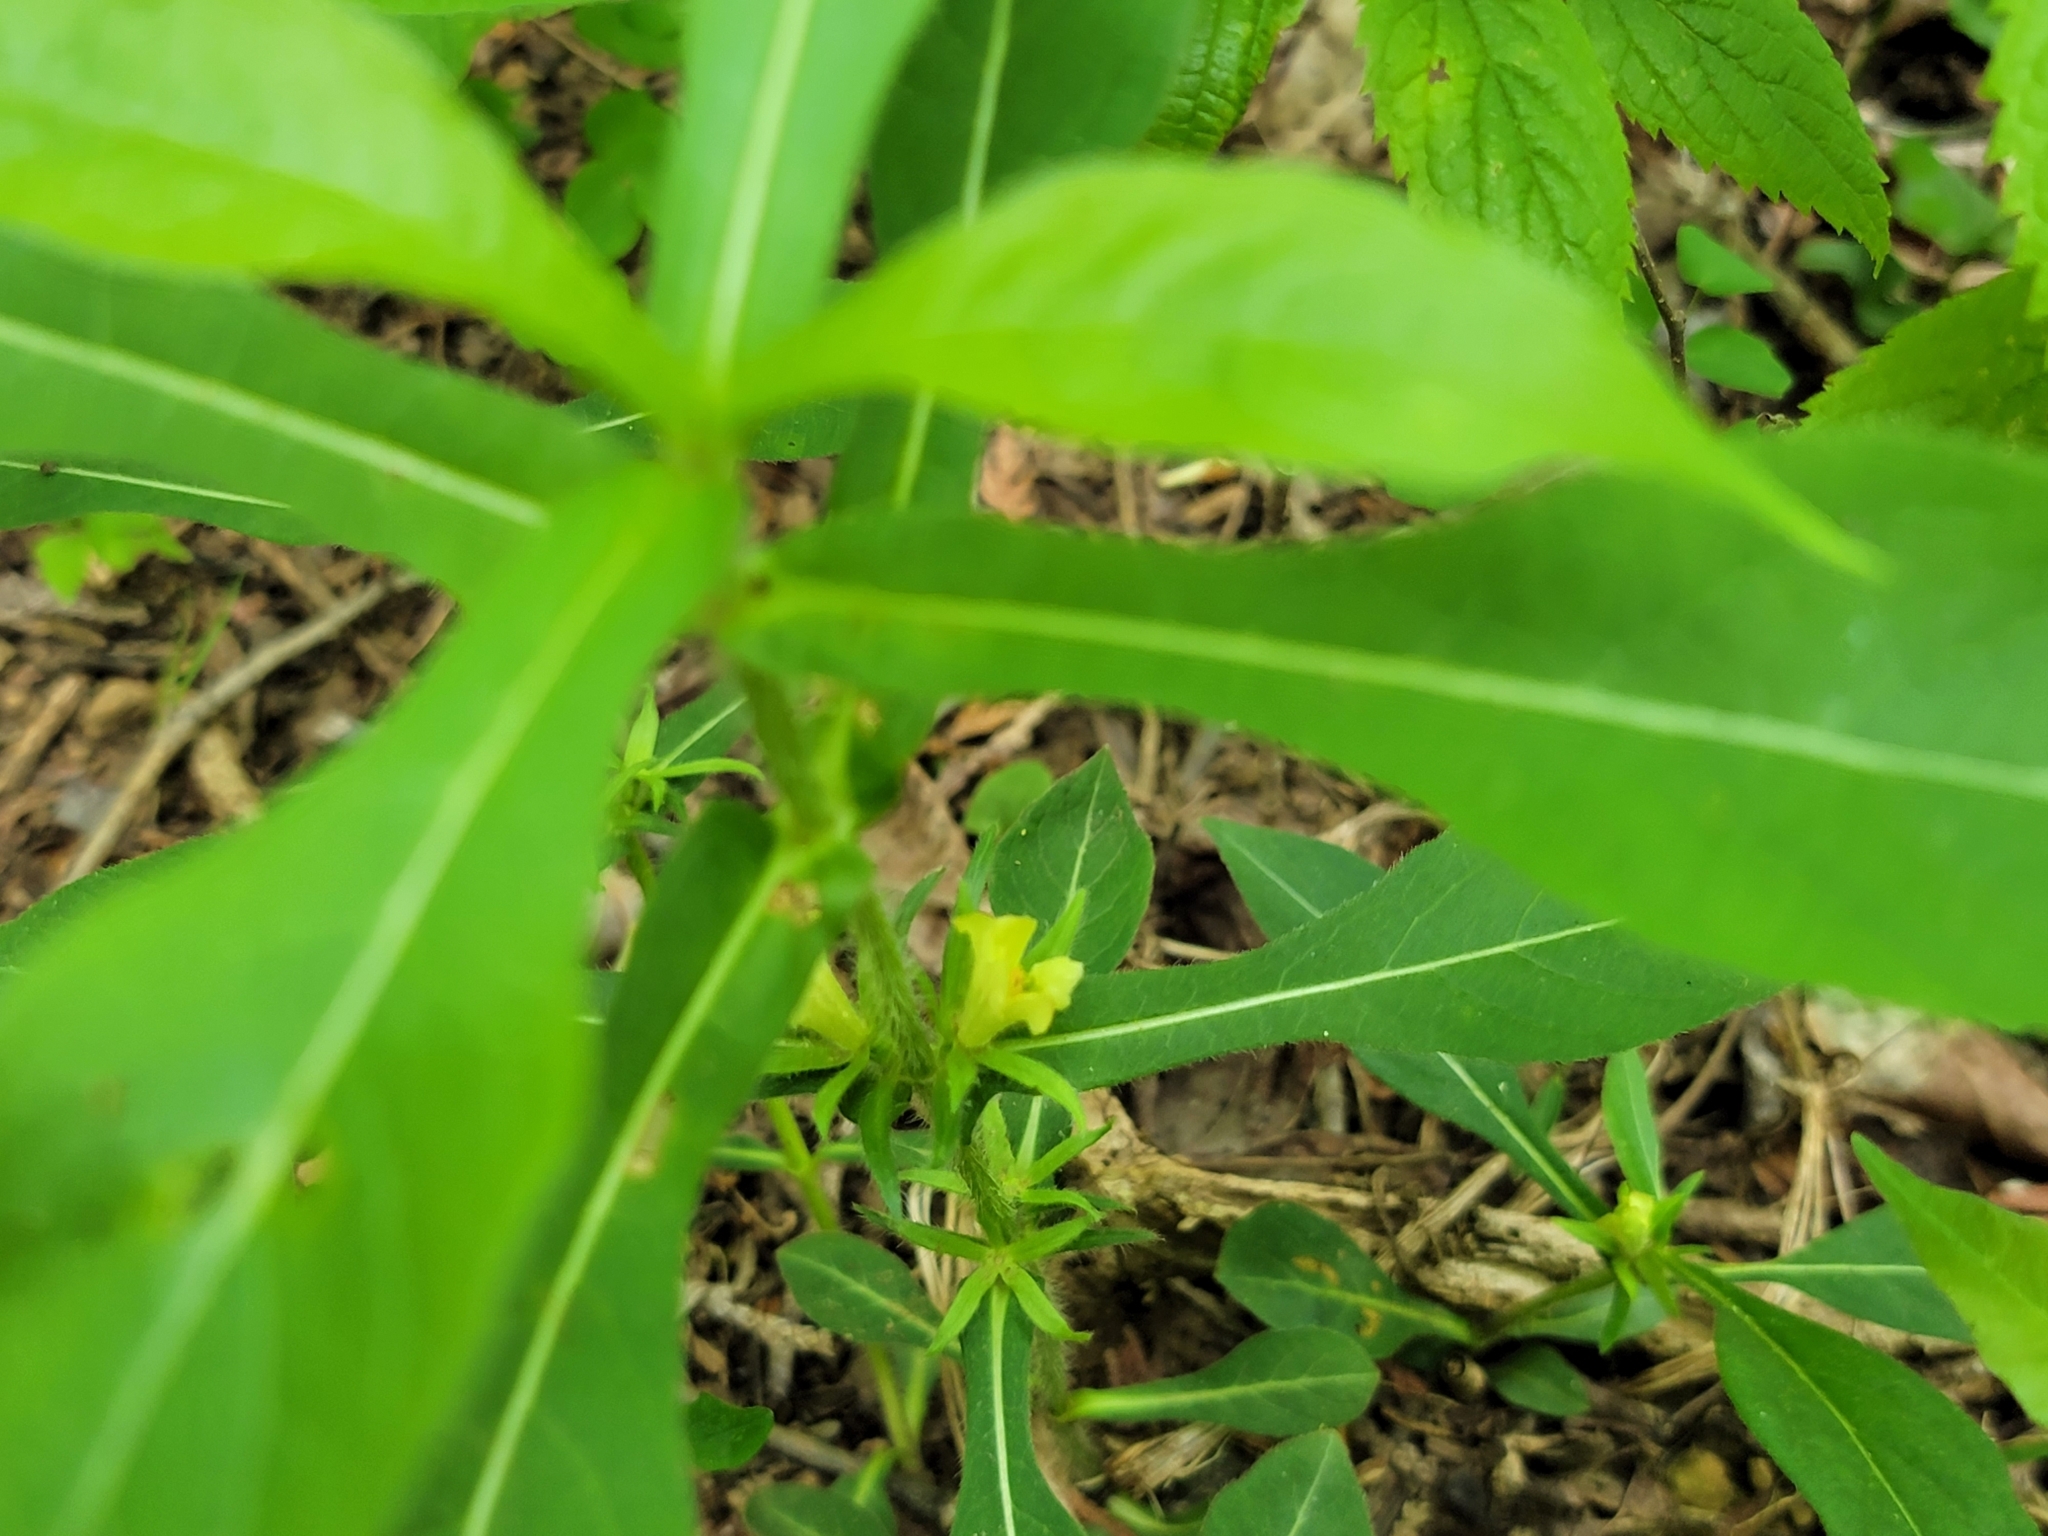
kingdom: Plantae
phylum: Tracheophyta
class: Magnoliopsida
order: Dipsacales
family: Caprifoliaceae
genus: Triosteum
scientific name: Triosteum angustifolium
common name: Narrow-leaved horse-gentian
